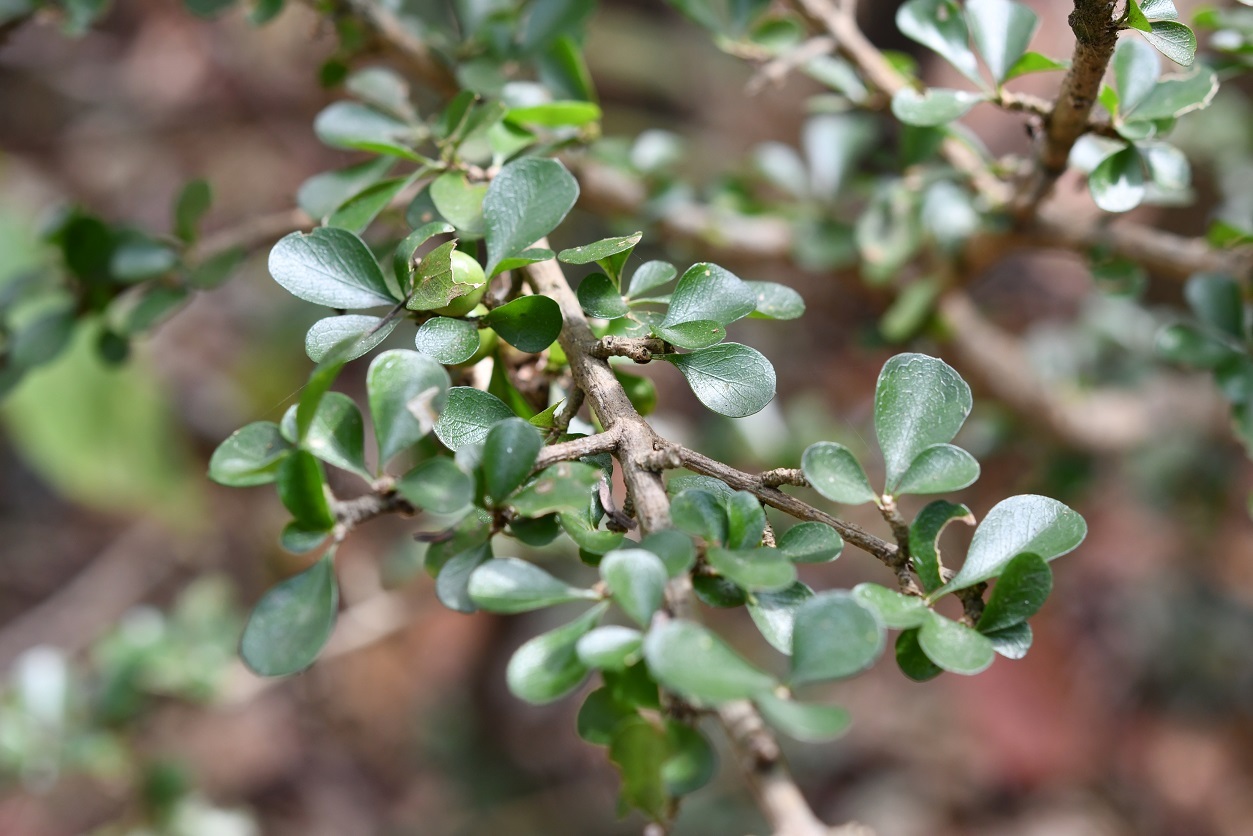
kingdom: Plantae
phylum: Tracheophyta
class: Magnoliopsida
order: Gentianales
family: Rubiaceae
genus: Randia
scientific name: Randia cookii
